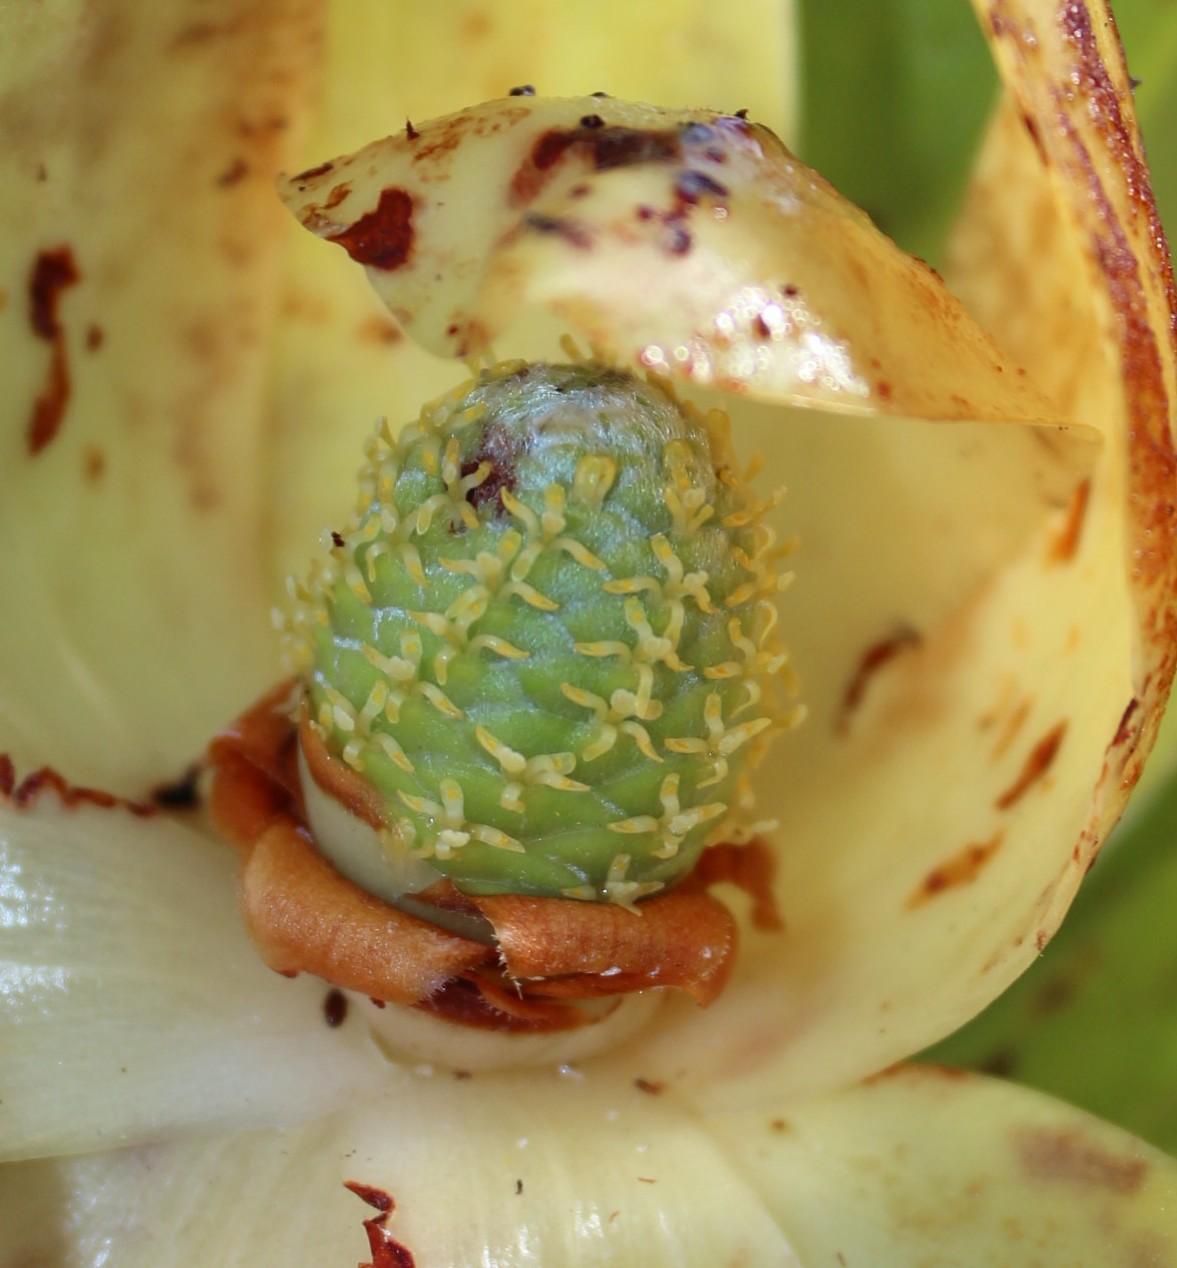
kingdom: Plantae
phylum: Tracheophyta
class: Magnoliopsida
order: Proteales
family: Proteaceae
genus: Leucadendron
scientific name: Leucadendron laureolum
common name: Golden sunshinebush
